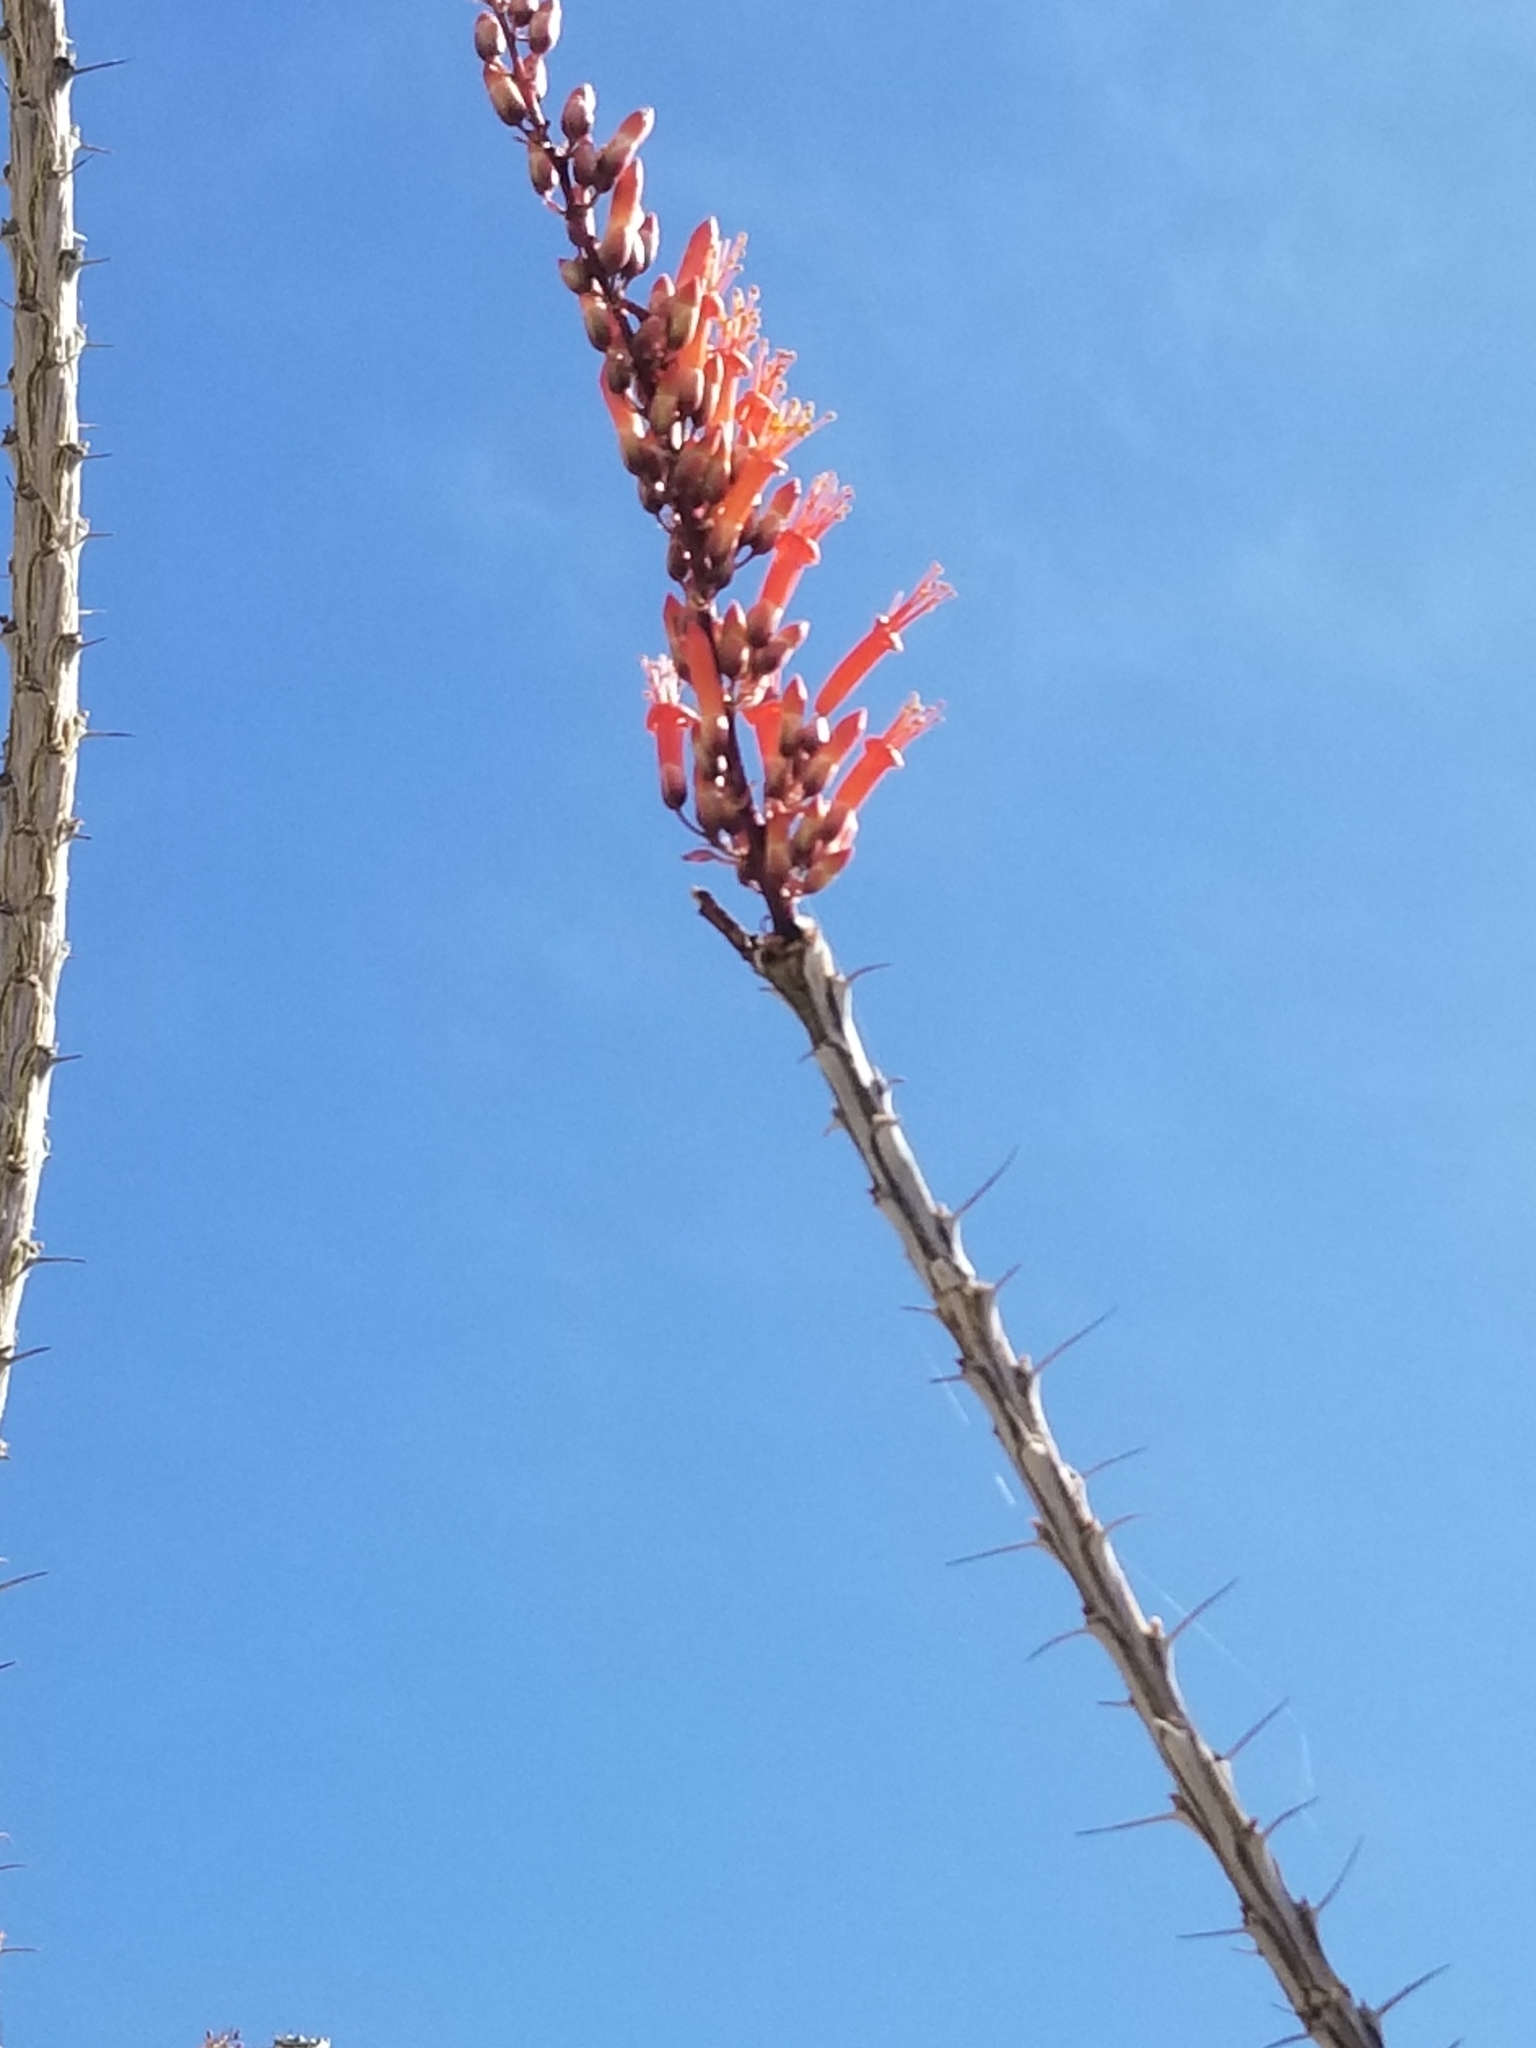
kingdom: Plantae
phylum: Tracheophyta
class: Magnoliopsida
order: Ericales
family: Fouquieriaceae
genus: Fouquieria
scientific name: Fouquieria splendens
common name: Vine-cactus
